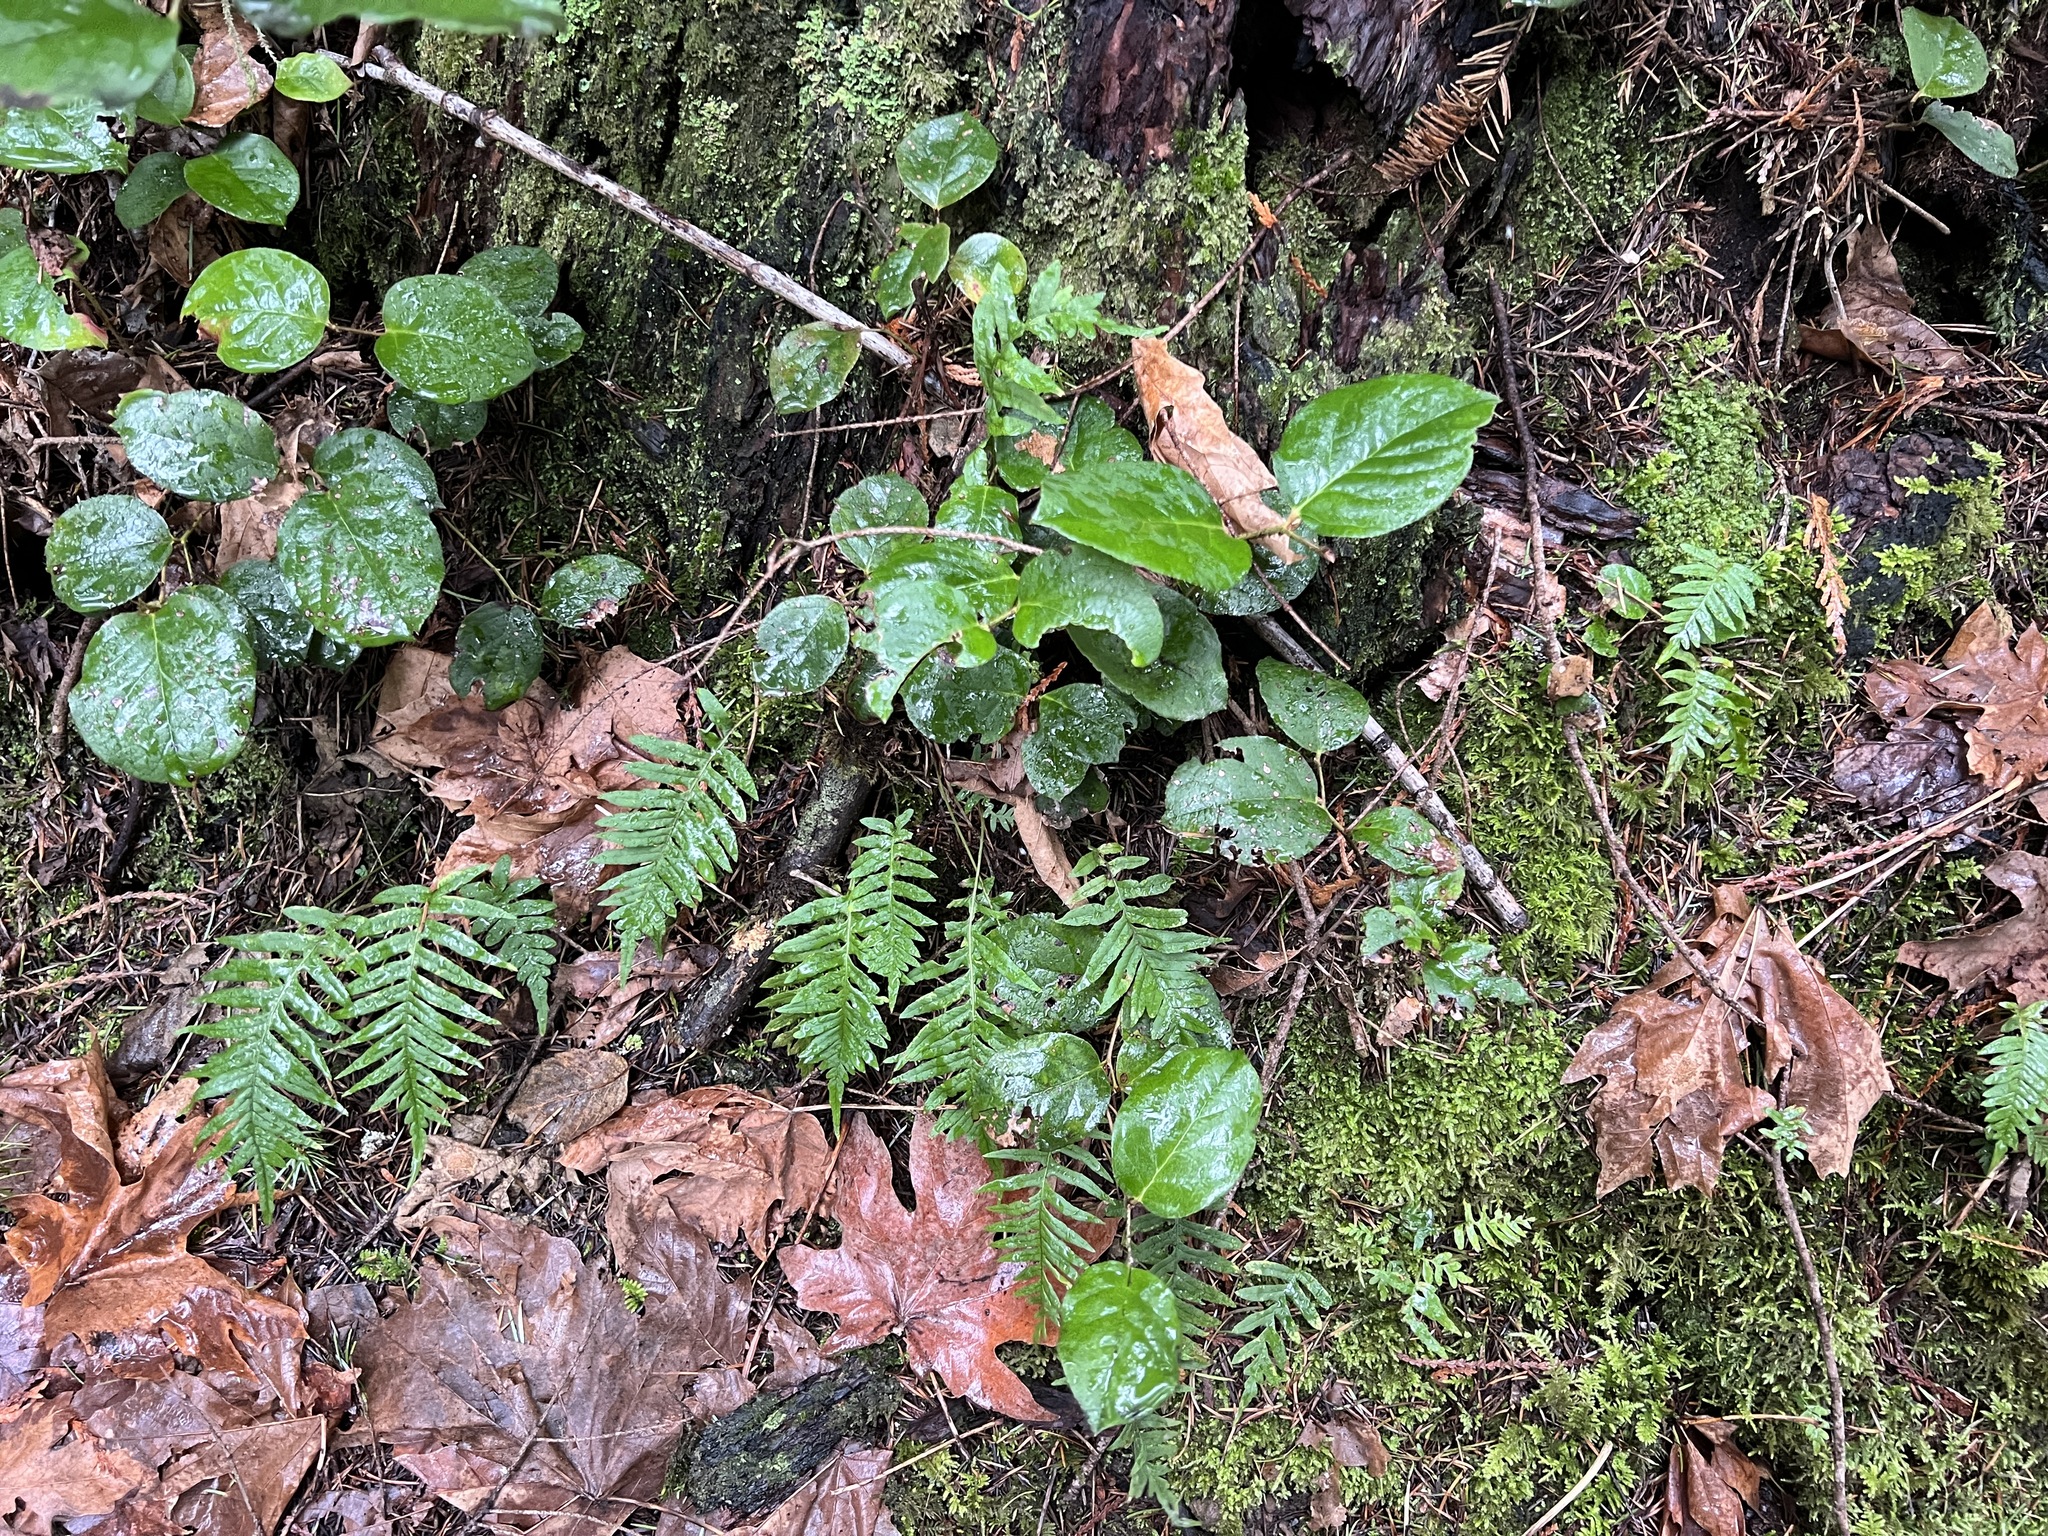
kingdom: Plantae
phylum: Tracheophyta
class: Polypodiopsida
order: Polypodiales
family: Polypodiaceae
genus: Polypodium
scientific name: Polypodium glycyrrhiza
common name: Licorice fern
